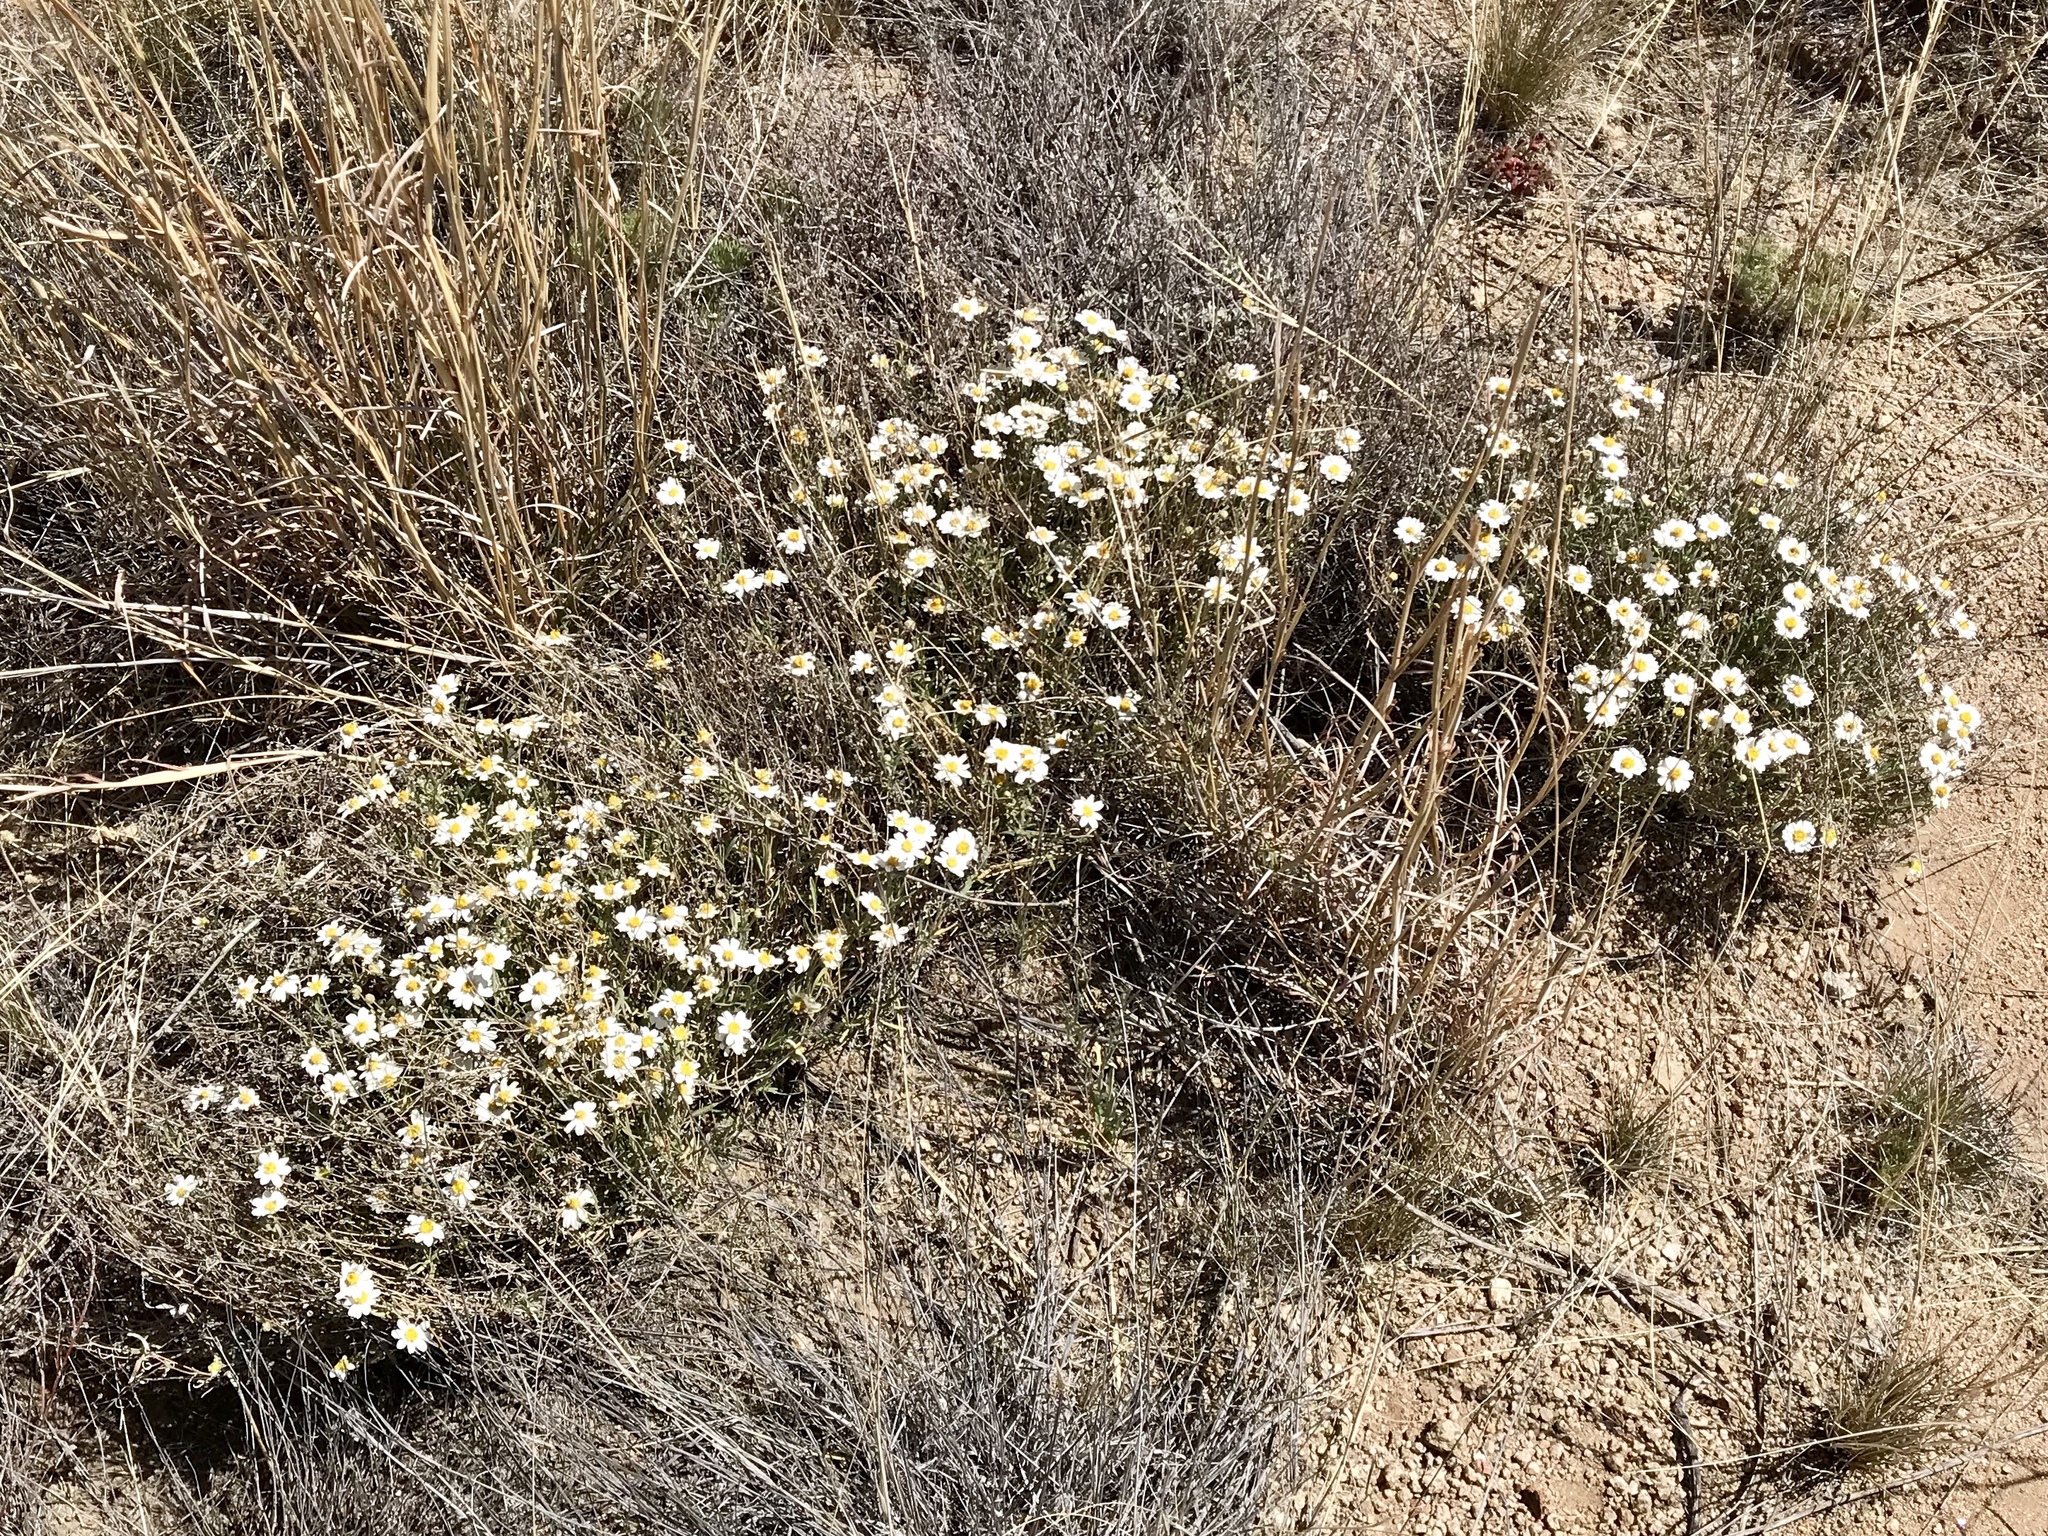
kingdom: Plantae
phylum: Tracheophyta
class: Magnoliopsida
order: Asterales
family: Asteraceae
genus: Melampodium
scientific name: Melampodium leucanthum
